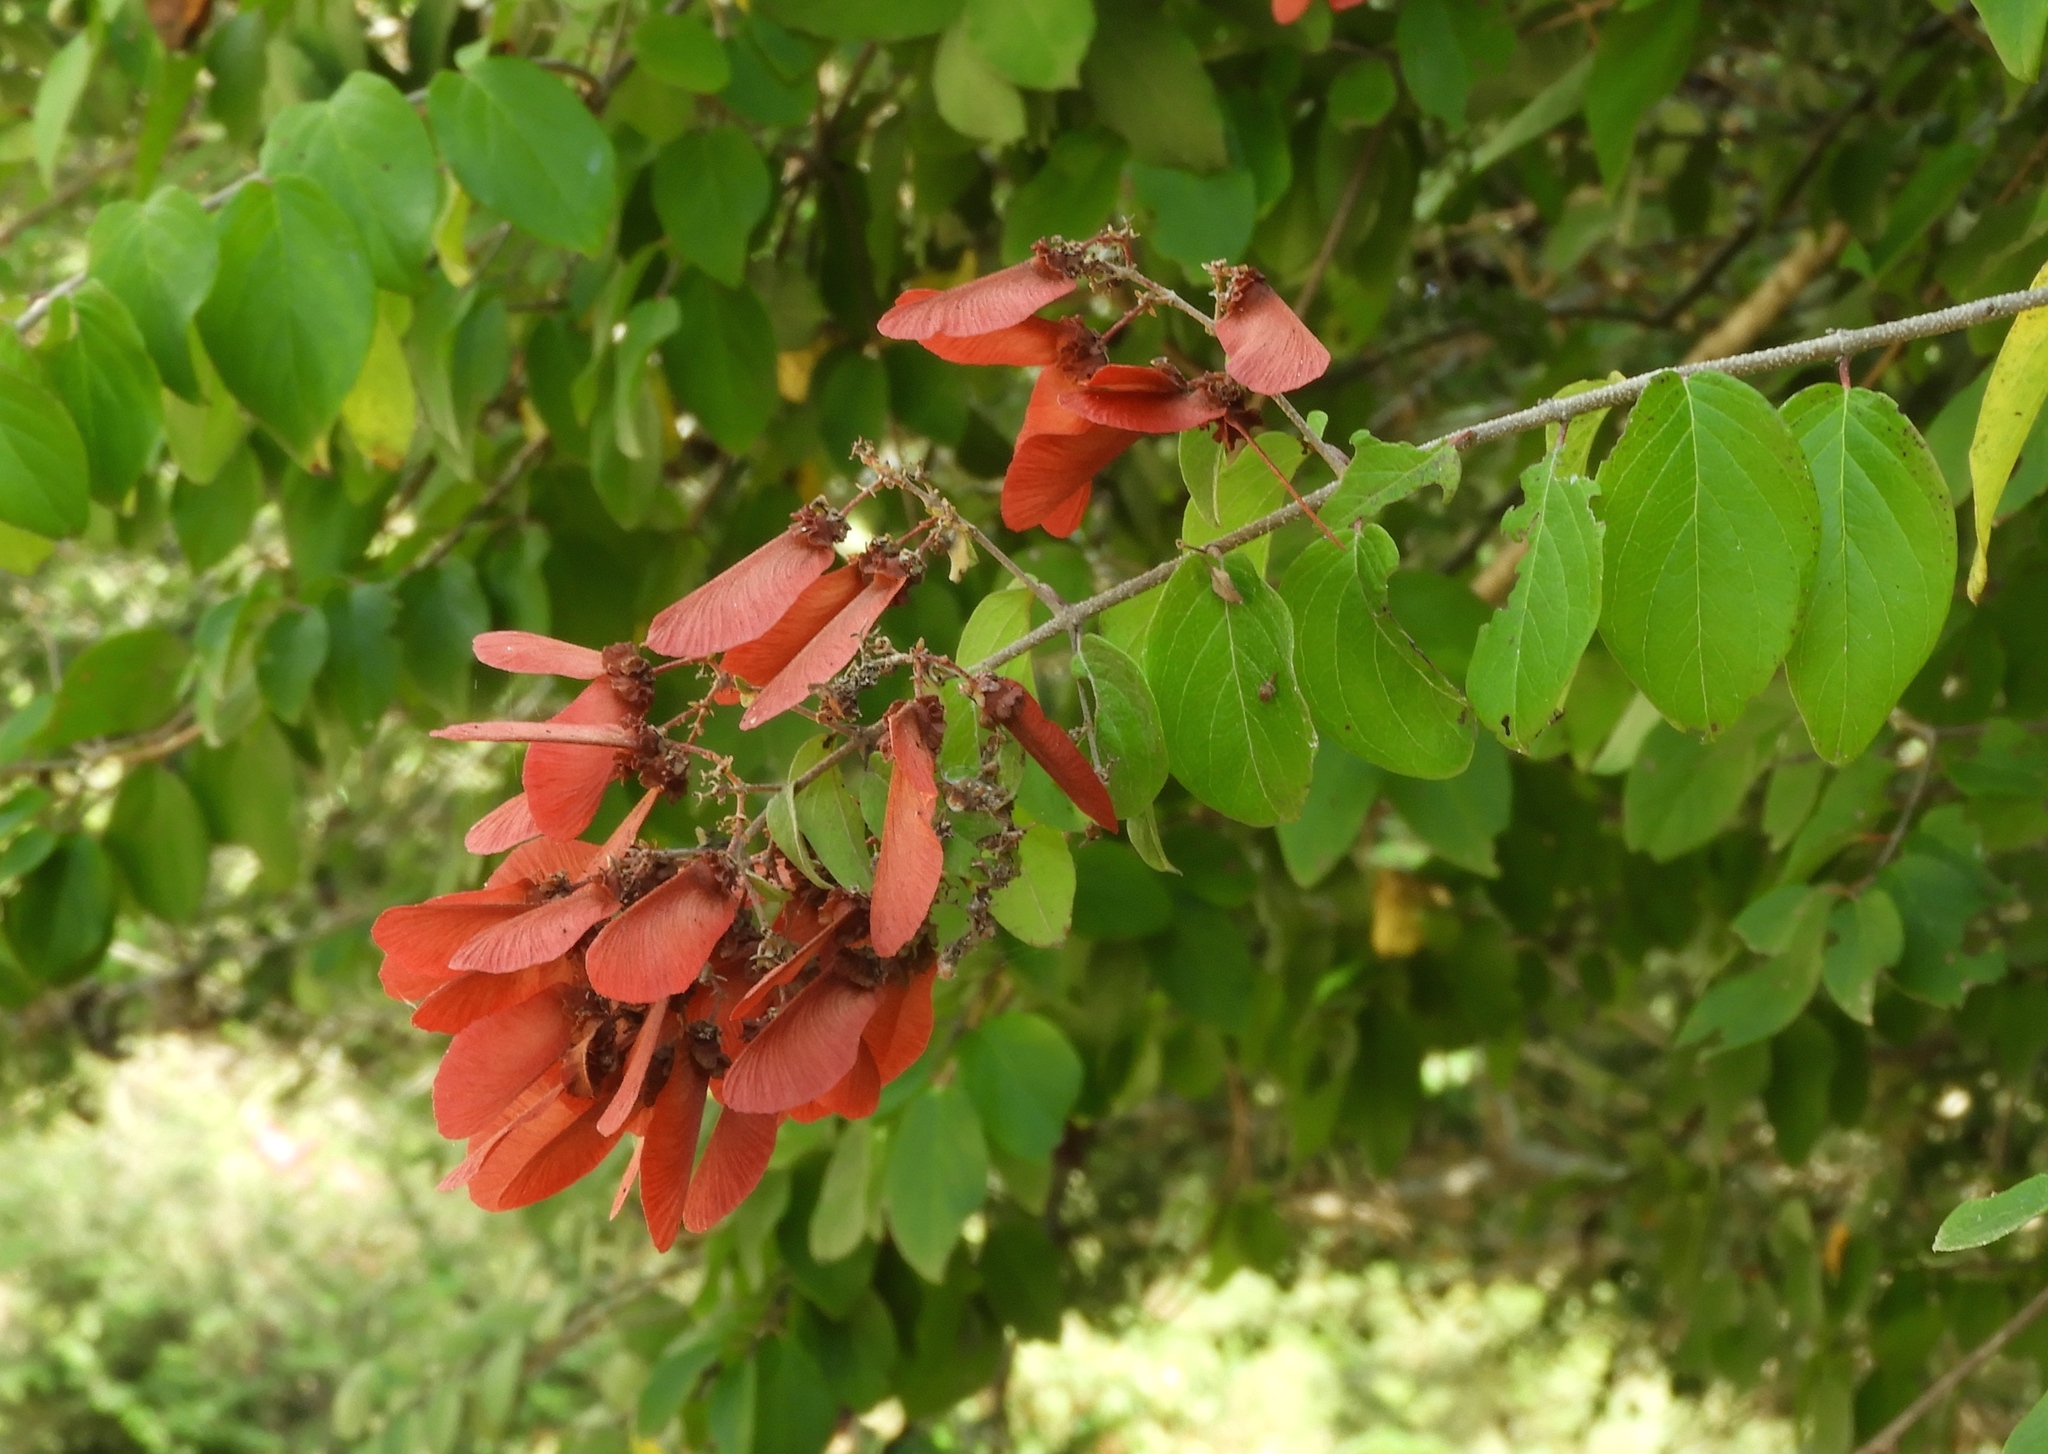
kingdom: Plantae
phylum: Tracheophyta
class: Magnoliopsida
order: Malpighiales
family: Malpighiaceae
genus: Heteropterys
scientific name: Heteropterys brachiata
